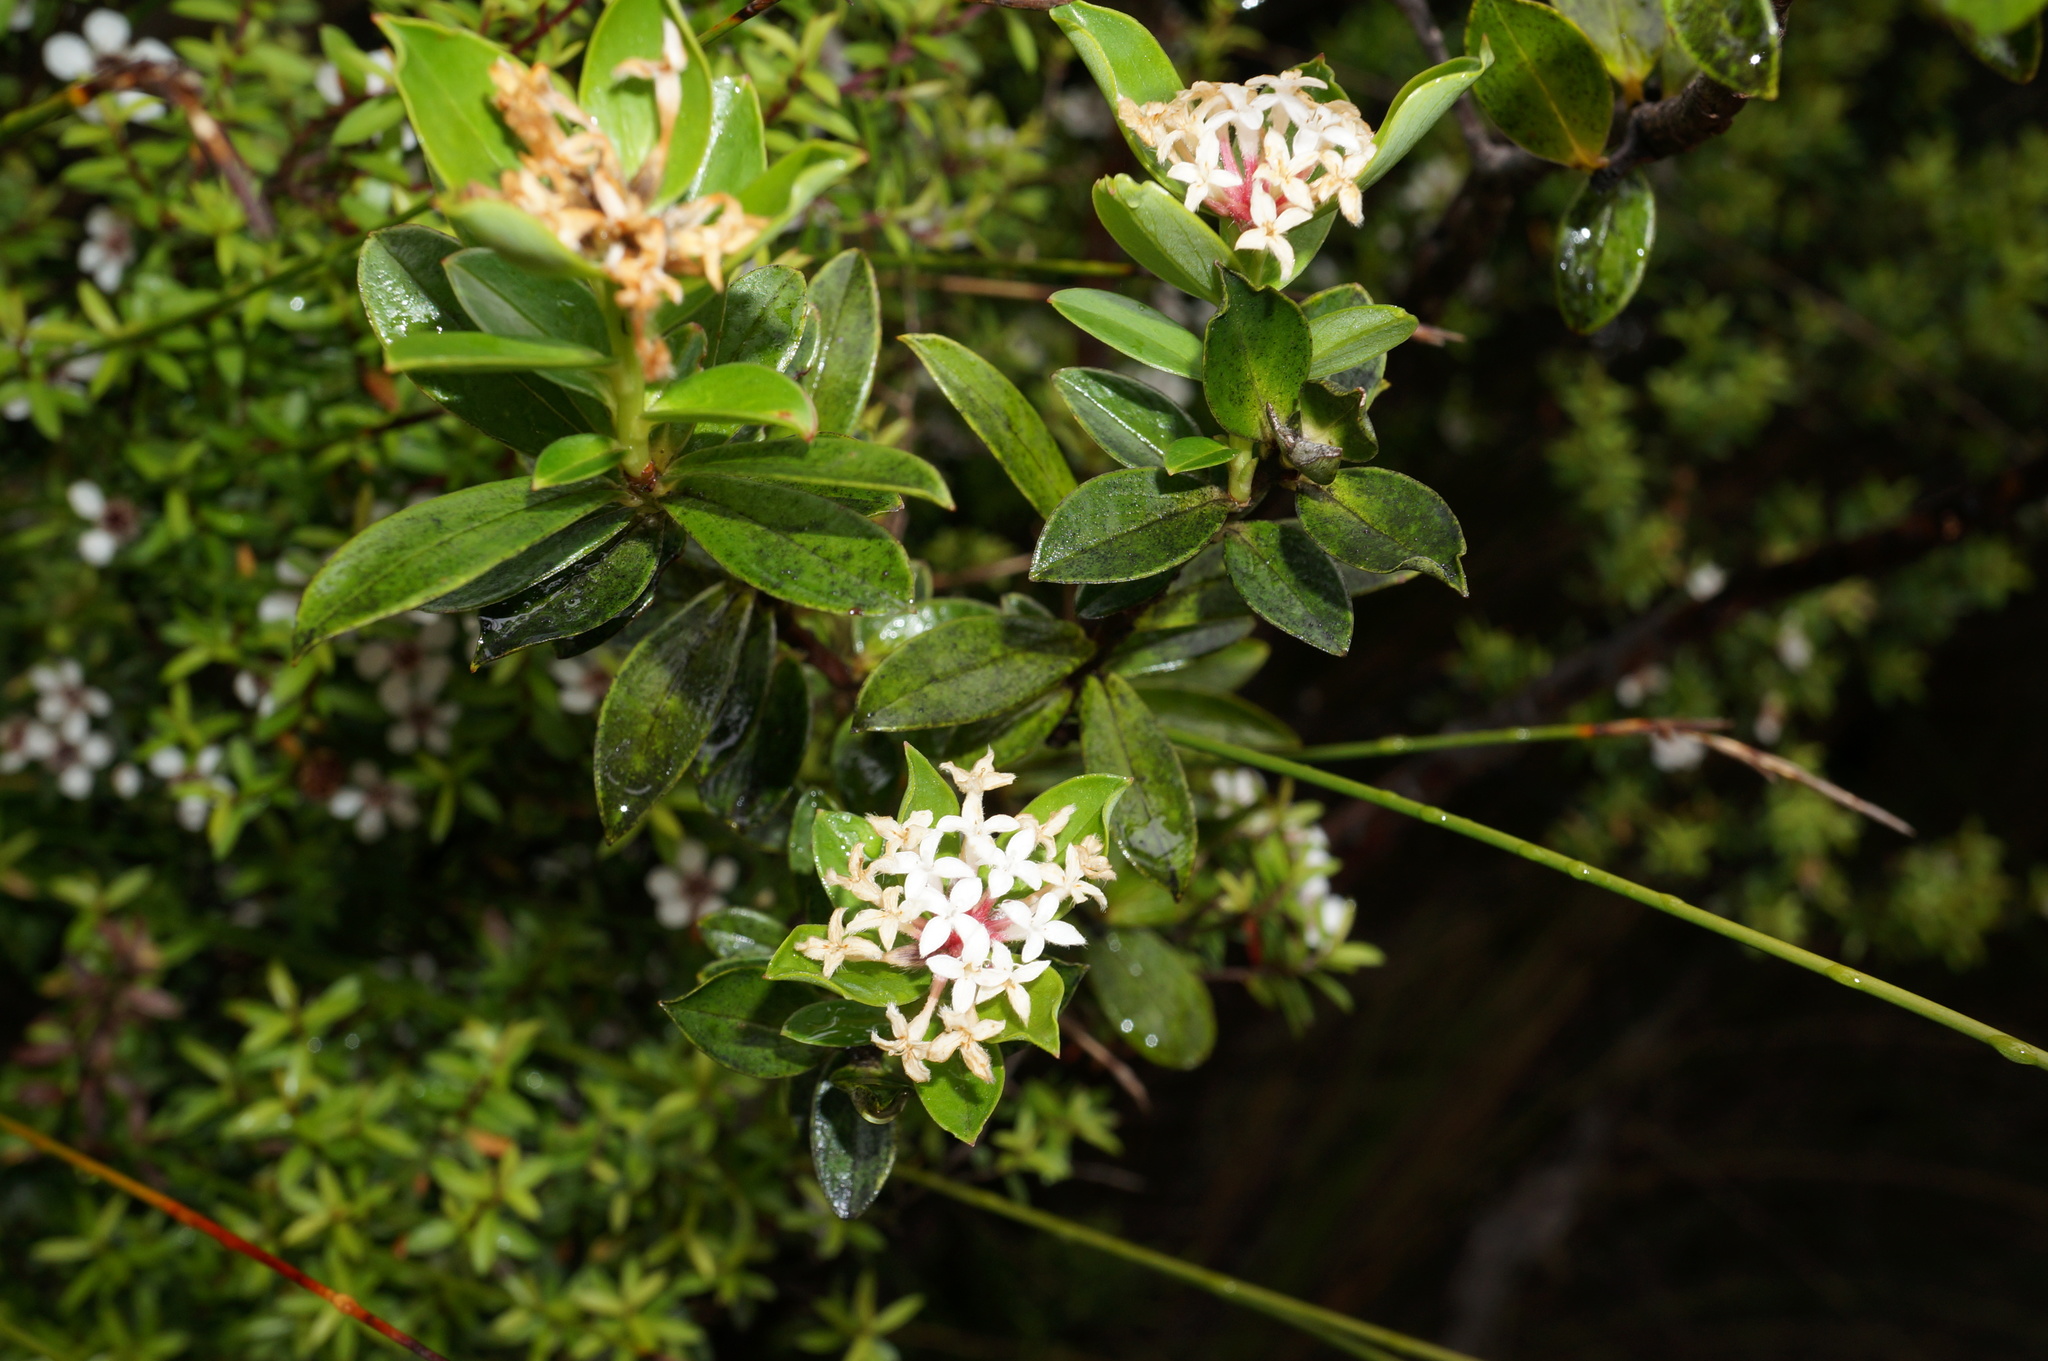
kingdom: Plantae
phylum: Tracheophyta
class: Magnoliopsida
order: Malvales
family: Thymelaeaceae
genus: Pimelea
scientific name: Pimelea longifolia
